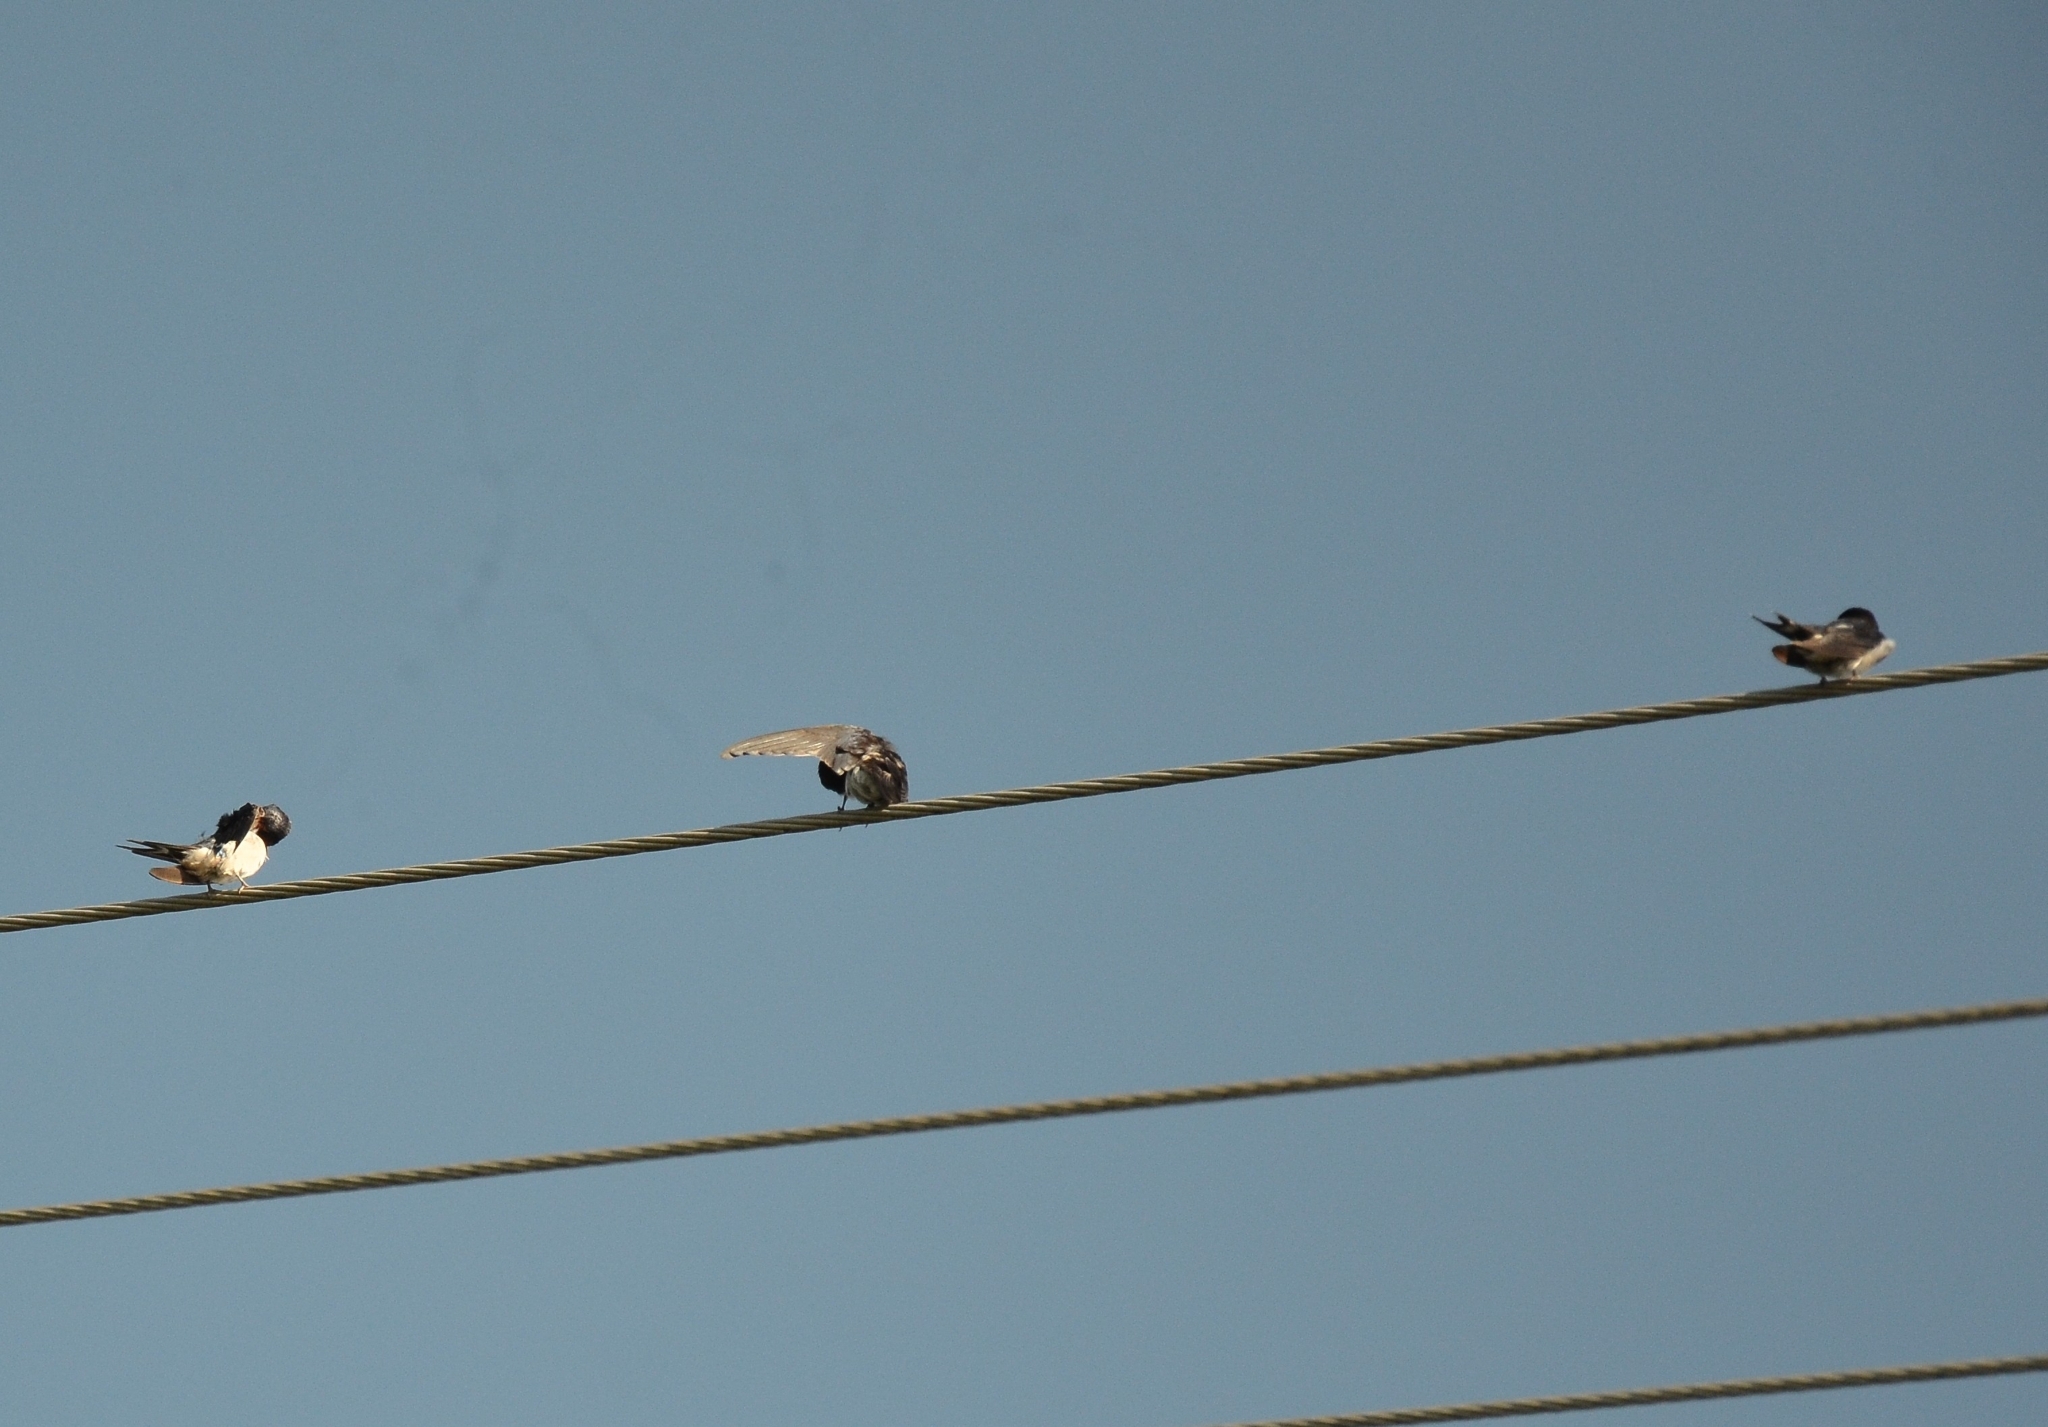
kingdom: Animalia
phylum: Chordata
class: Aves
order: Passeriformes
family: Hirundinidae
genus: Hirundo
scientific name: Hirundo rustica
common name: Barn swallow
